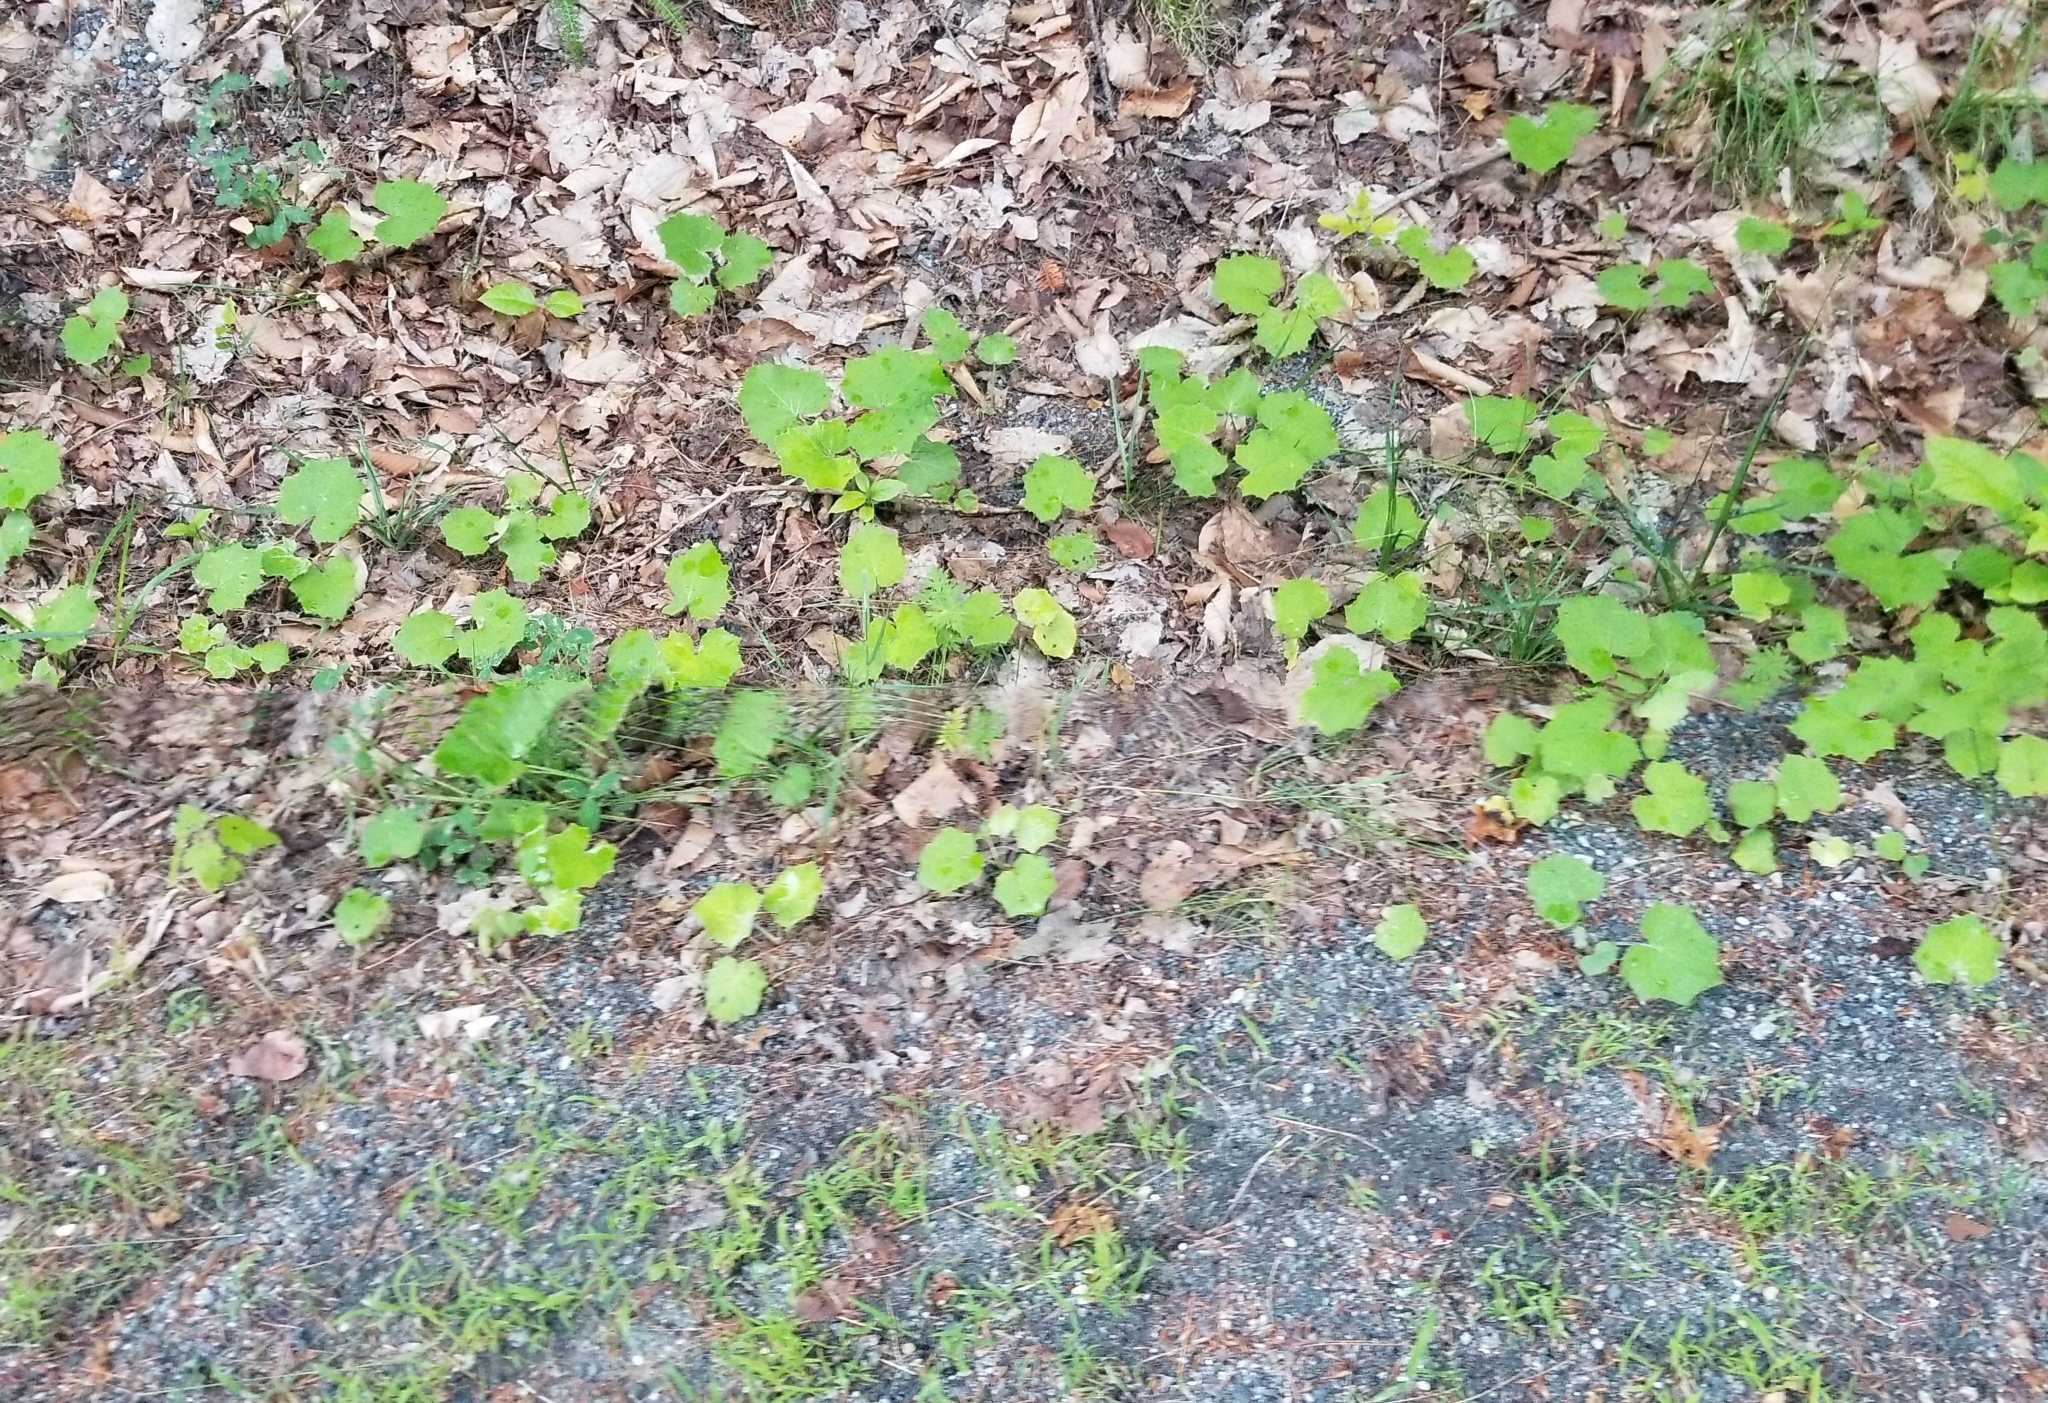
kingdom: Plantae
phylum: Tracheophyta
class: Magnoliopsida
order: Asterales
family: Asteraceae
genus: Tussilago
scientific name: Tussilago farfara
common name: Coltsfoot
